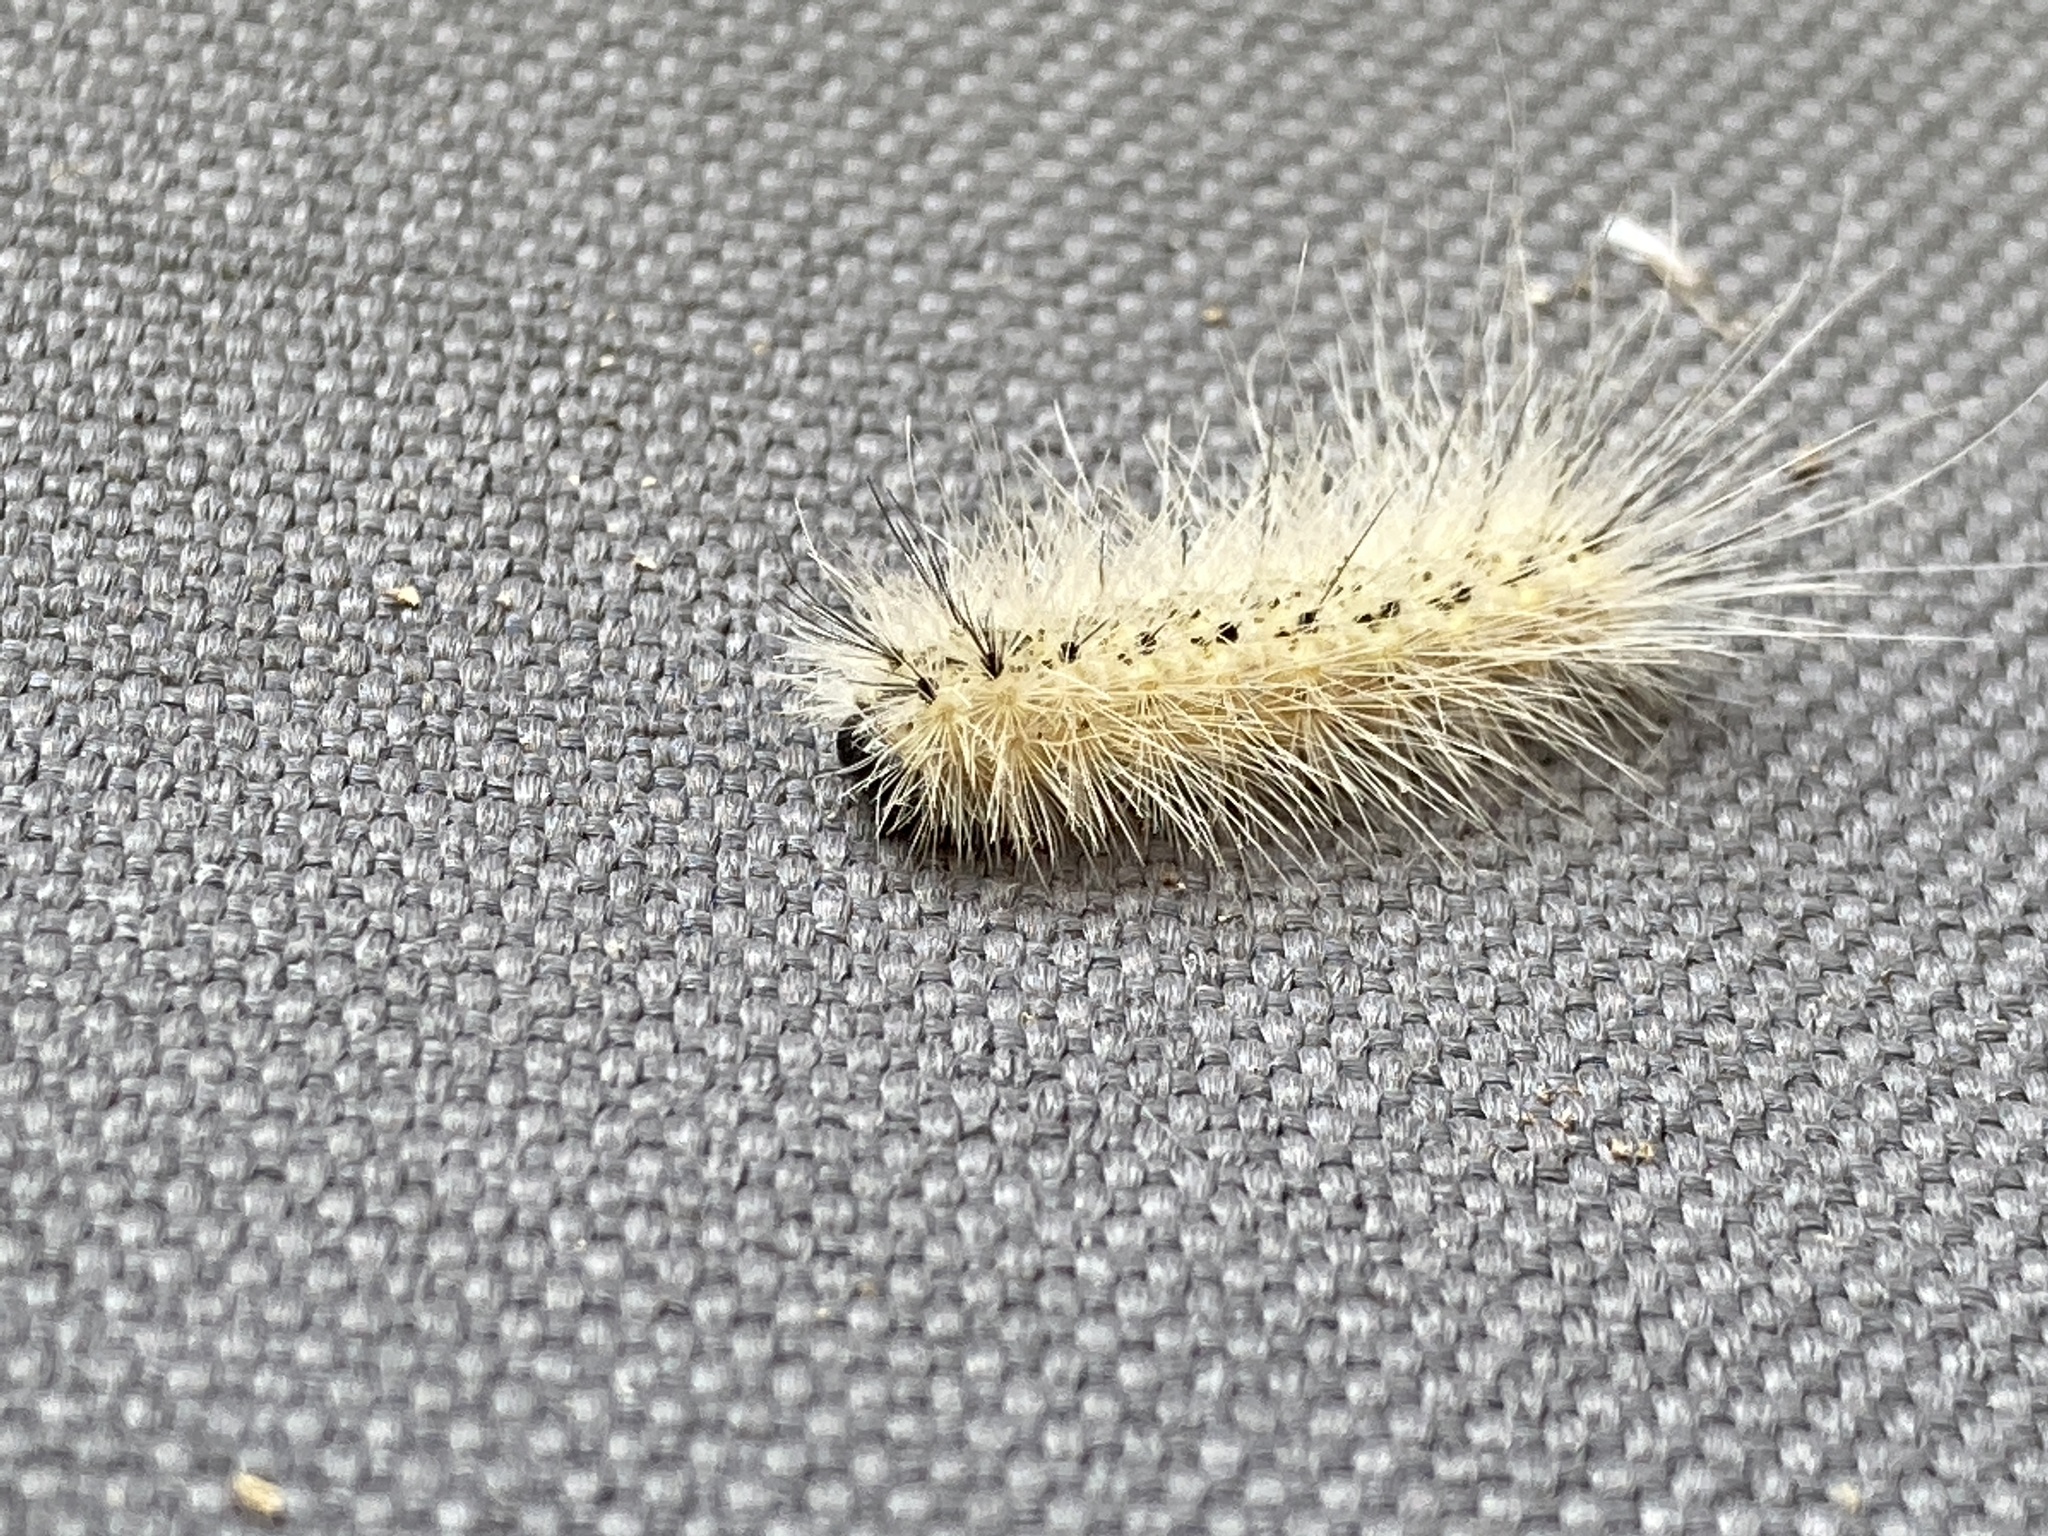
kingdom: Animalia
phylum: Arthropoda
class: Insecta
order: Lepidoptera
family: Erebidae
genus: Hyphantria
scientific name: Hyphantria cunea
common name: American white moth
